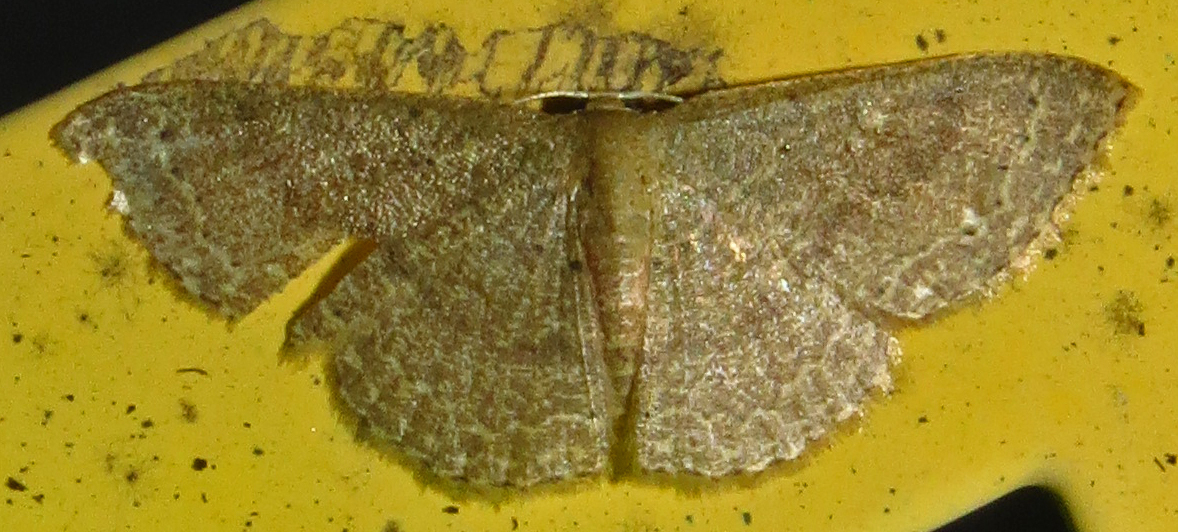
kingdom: Animalia
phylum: Arthropoda
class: Insecta
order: Lepidoptera
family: Geometridae
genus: Pleuroprucha
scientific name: Pleuroprucha insulsaria
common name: Common tan wave
